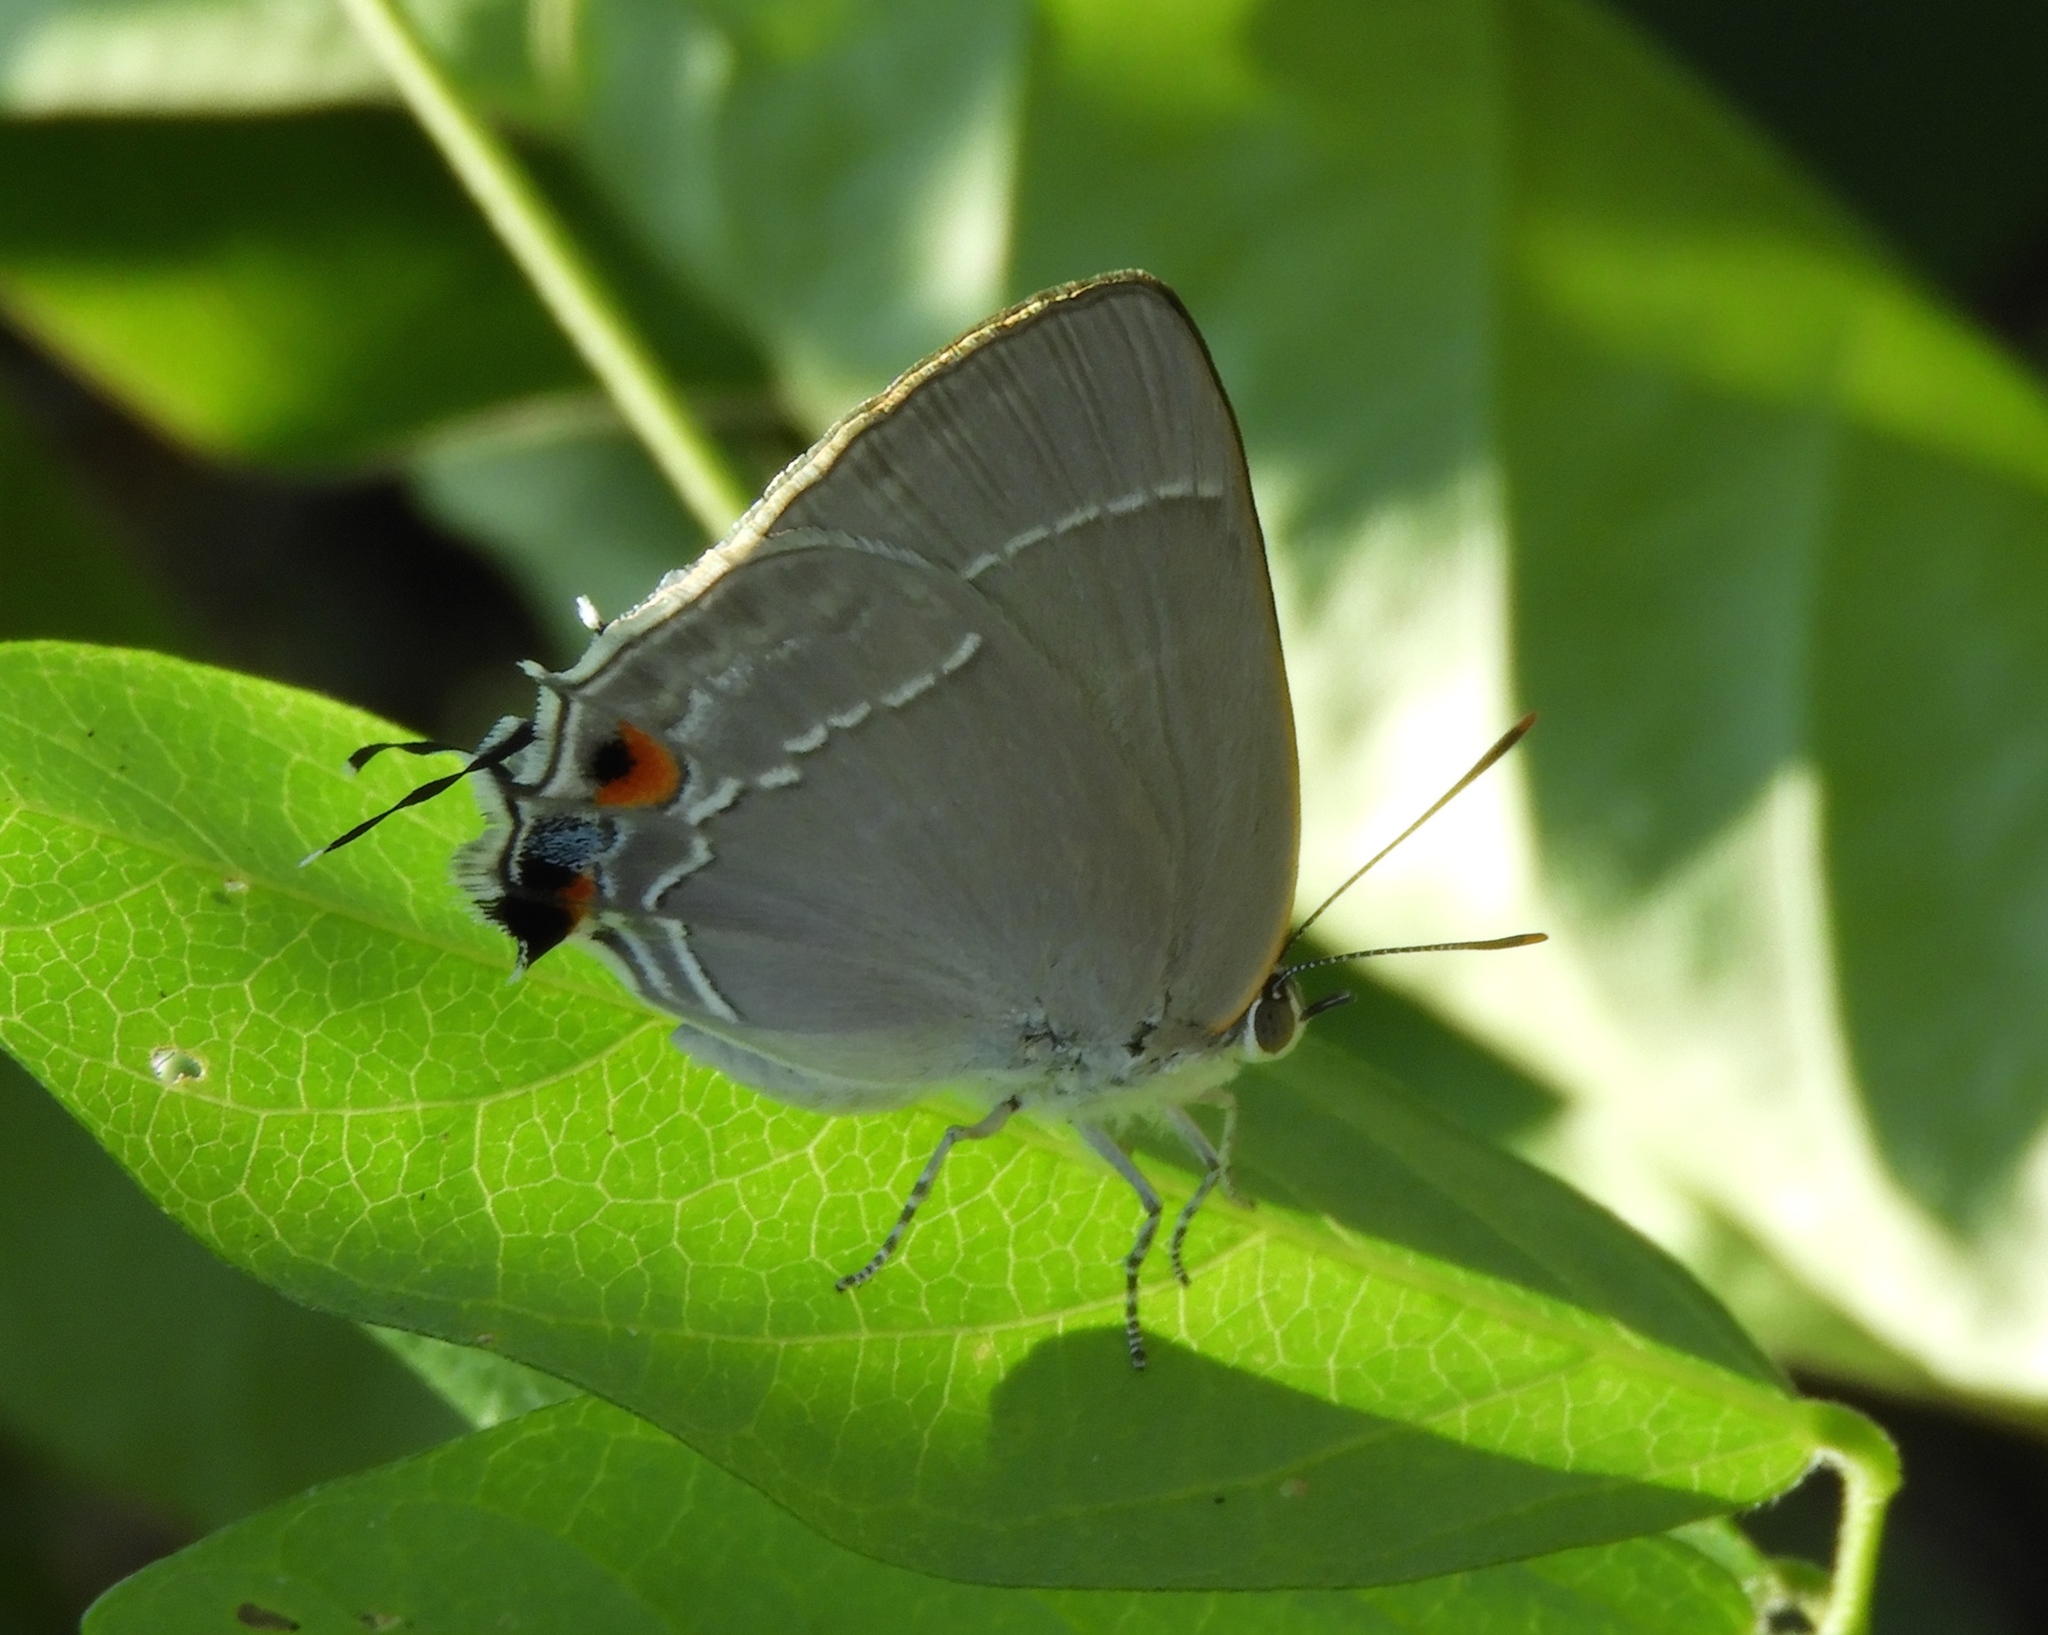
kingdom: Animalia
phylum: Arthropoda
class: Insecta
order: Lepidoptera
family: Lycaenidae
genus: Thecla
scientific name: Thecla marius
